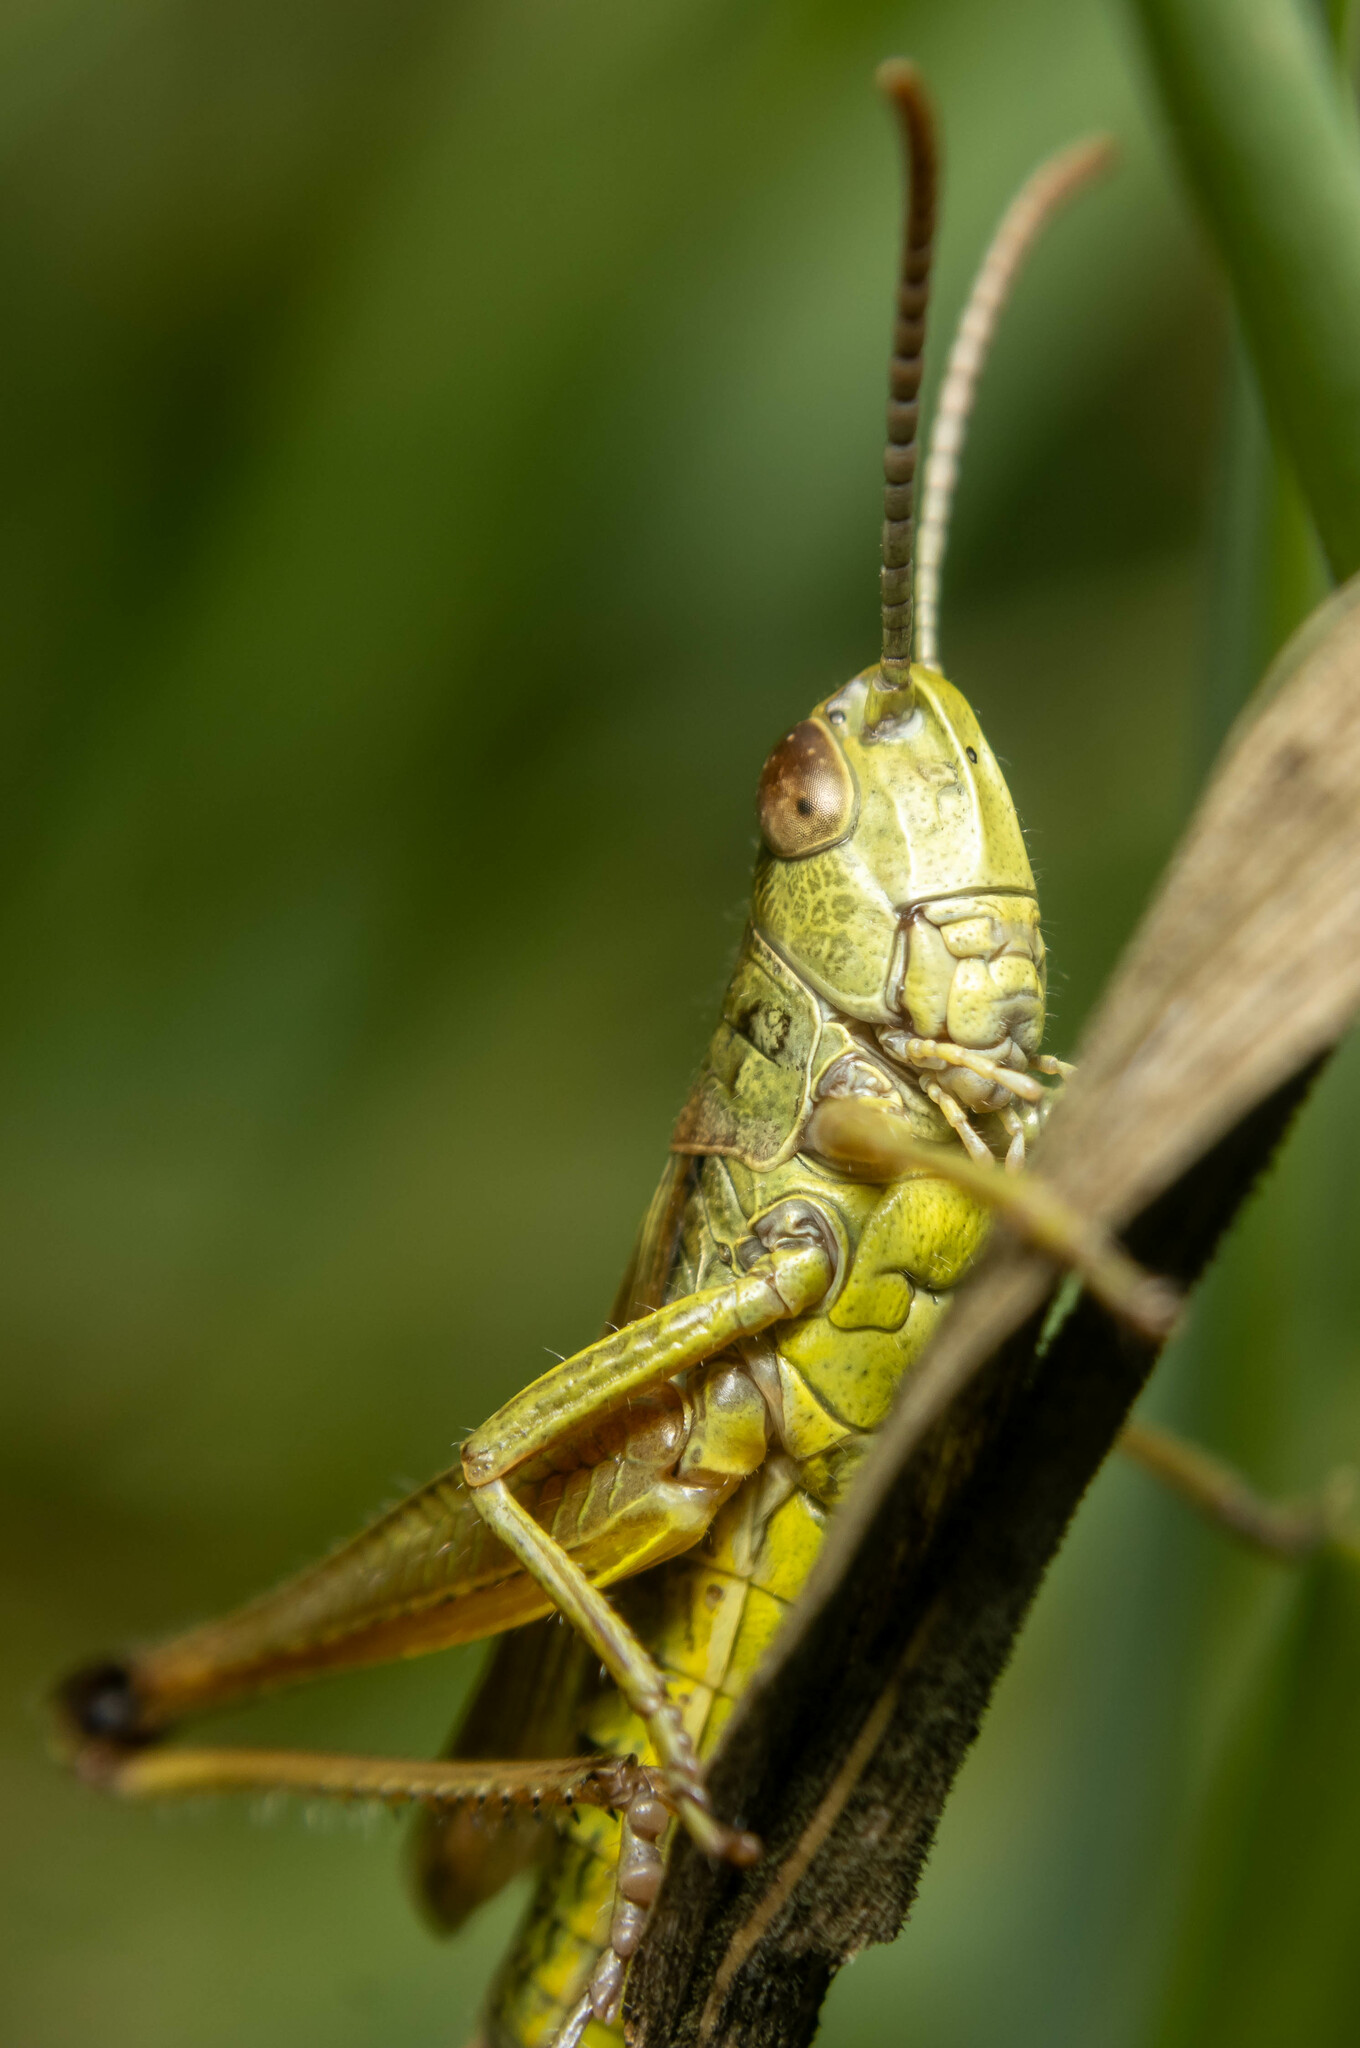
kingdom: Animalia
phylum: Arthropoda
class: Insecta
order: Orthoptera
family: Acrididae
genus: Pseudochorthippus
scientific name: Pseudochorthippus parallelus
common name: Meadow grasshopper
